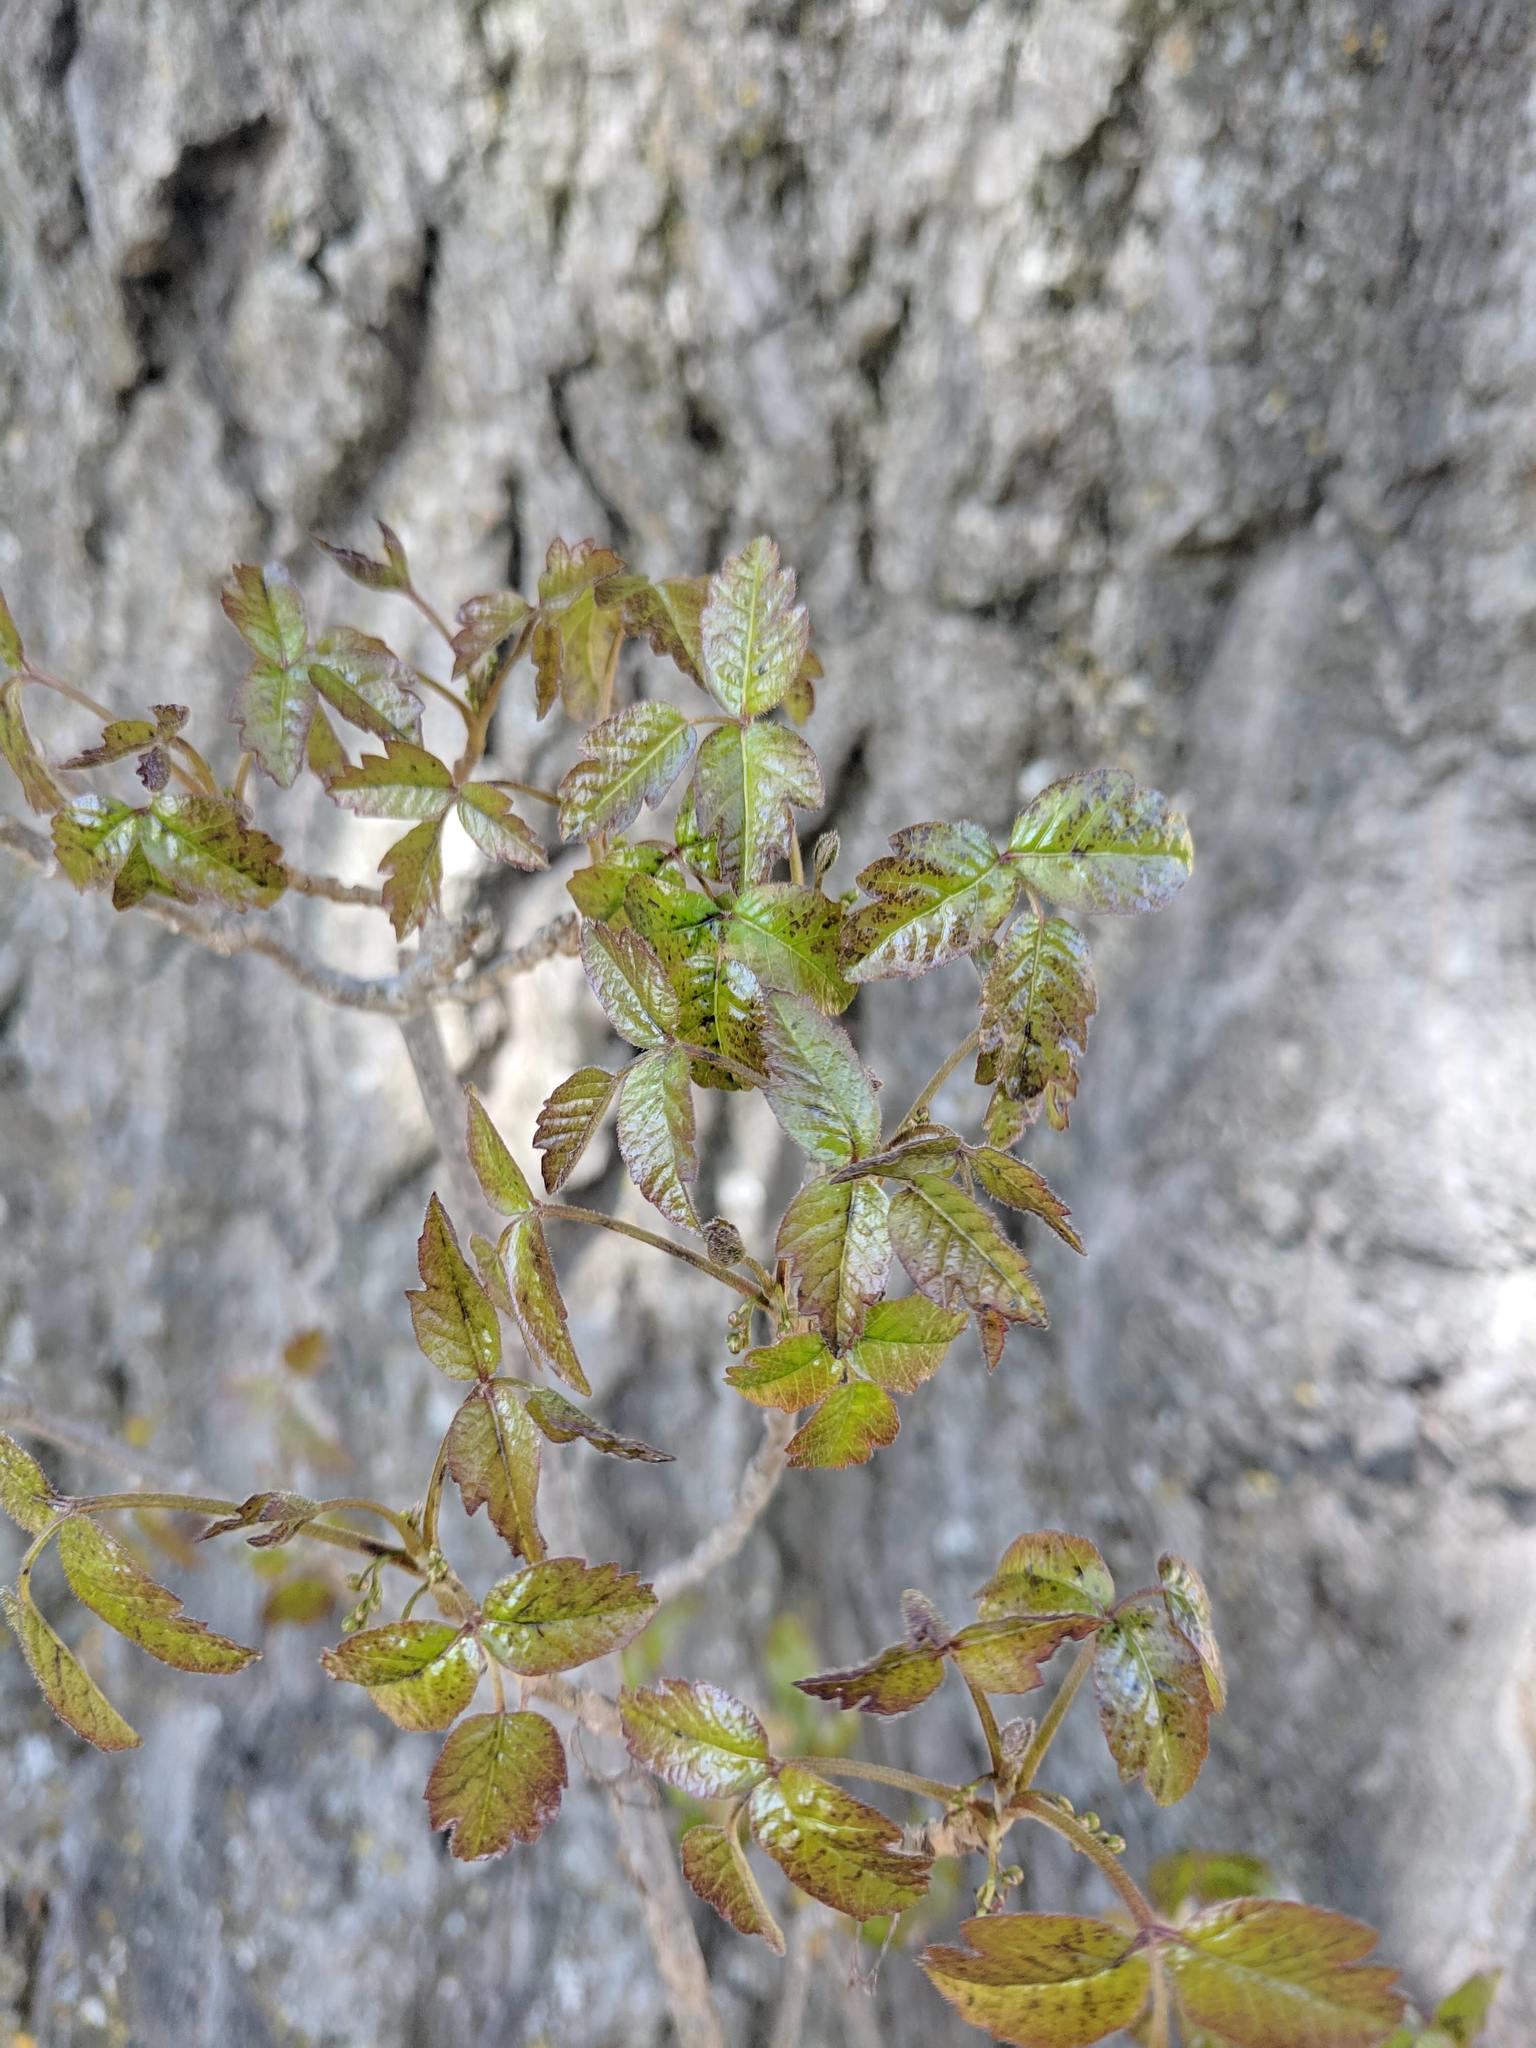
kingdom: Plantae
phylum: Tracheophyta
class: Magnoliopsida
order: Sapindales
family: Anacardiaceae
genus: Toxicodendron
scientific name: Toxicodendron diversilobum
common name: Pacific poison-oak
